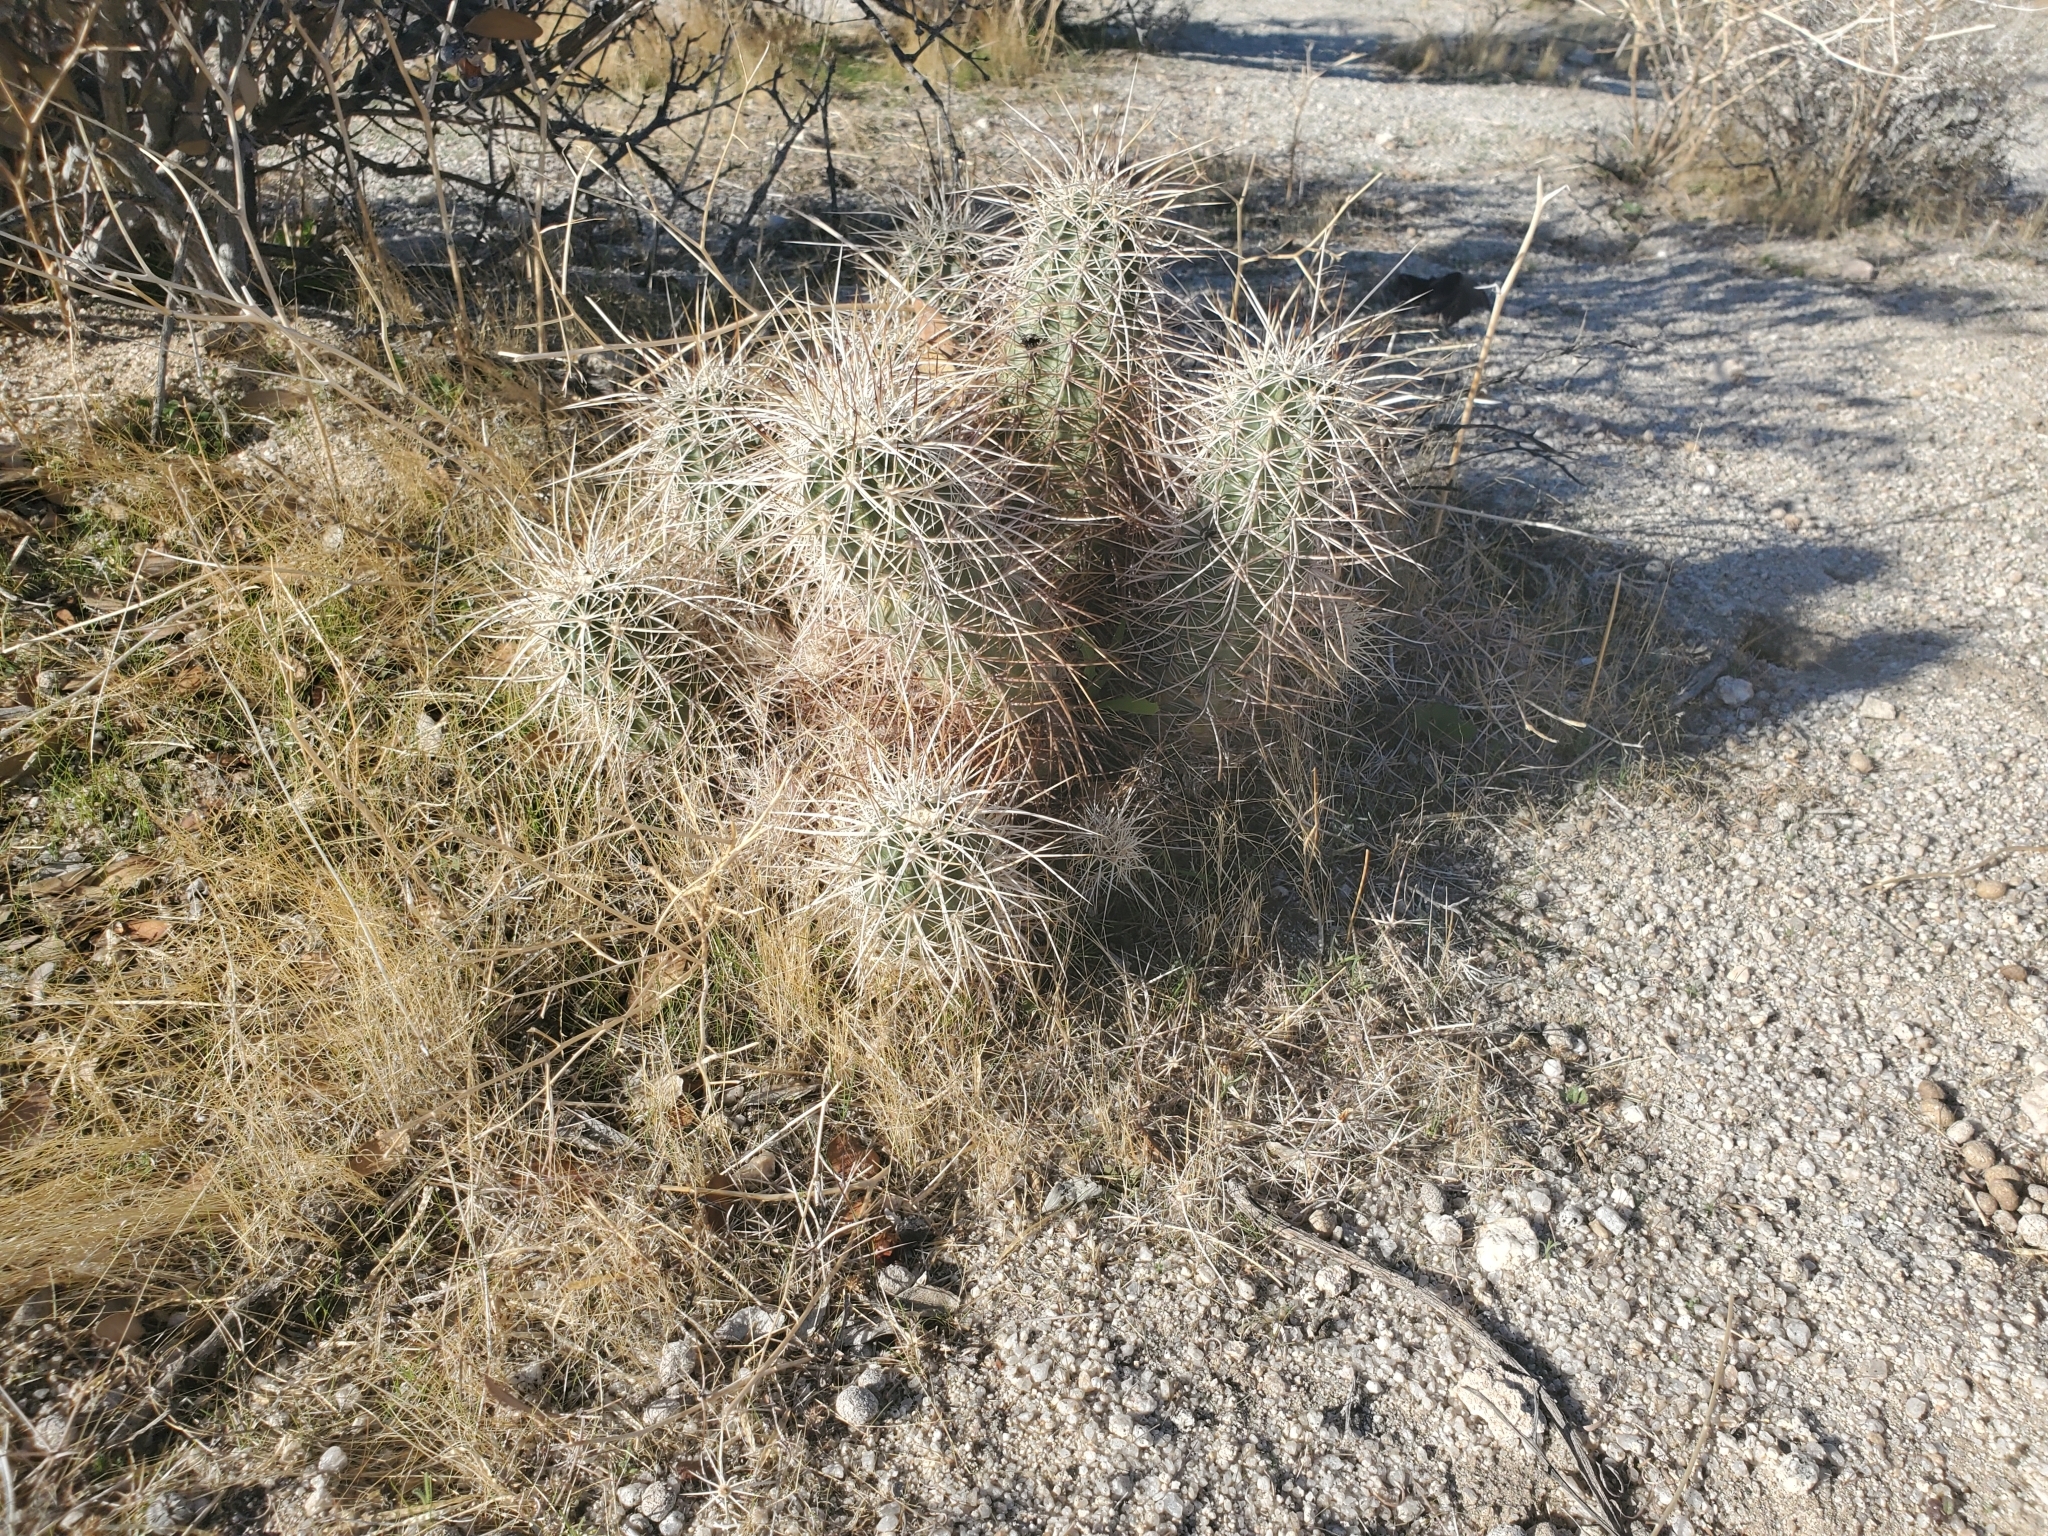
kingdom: Plantae
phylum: Tracheophyta
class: Magnoliopsida
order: Caryophyllales
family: Cactaceae
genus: Echinocereus
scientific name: Echinocereus engelmannii
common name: Engelmann's hedgehog cactus
